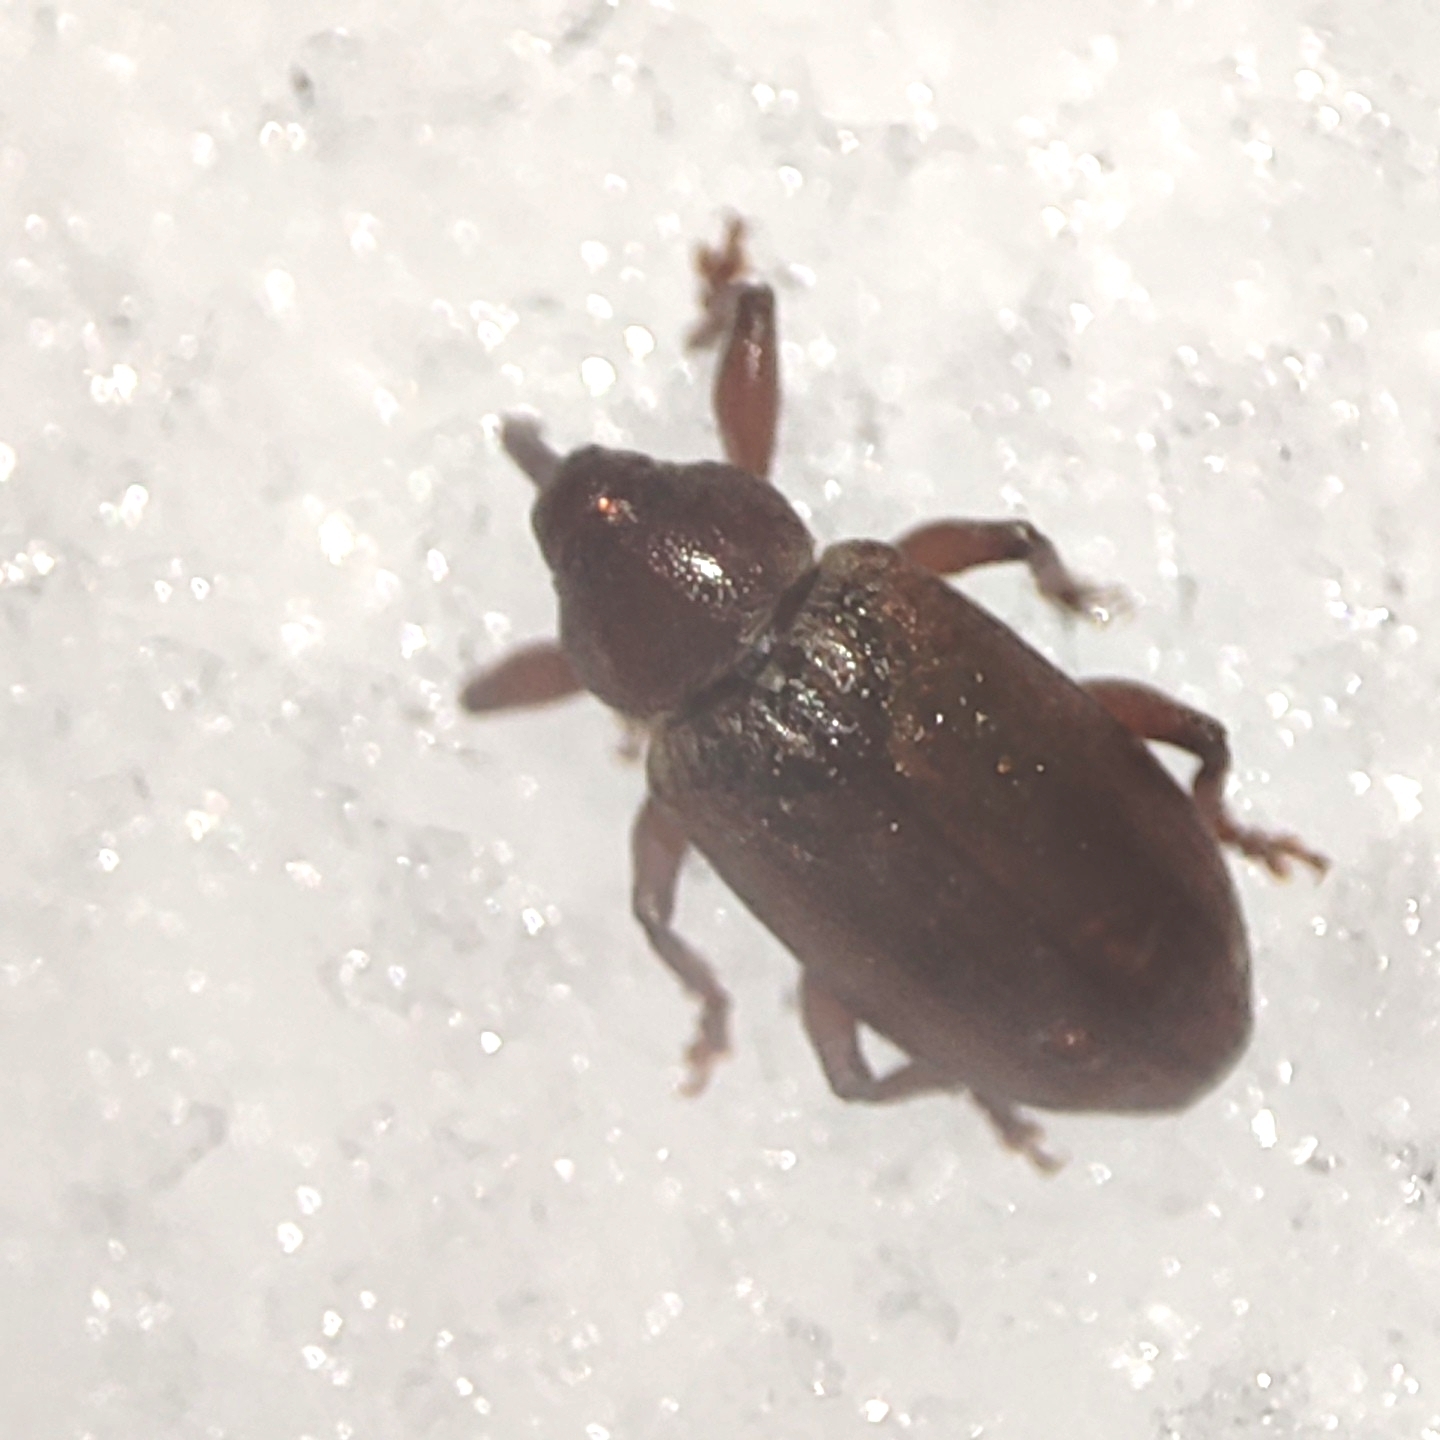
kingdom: Animalia
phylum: Arthropoda
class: Insecta
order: Coleoptera
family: Curculionidae
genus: Dorytomus
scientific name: Dorytomus tortrix
